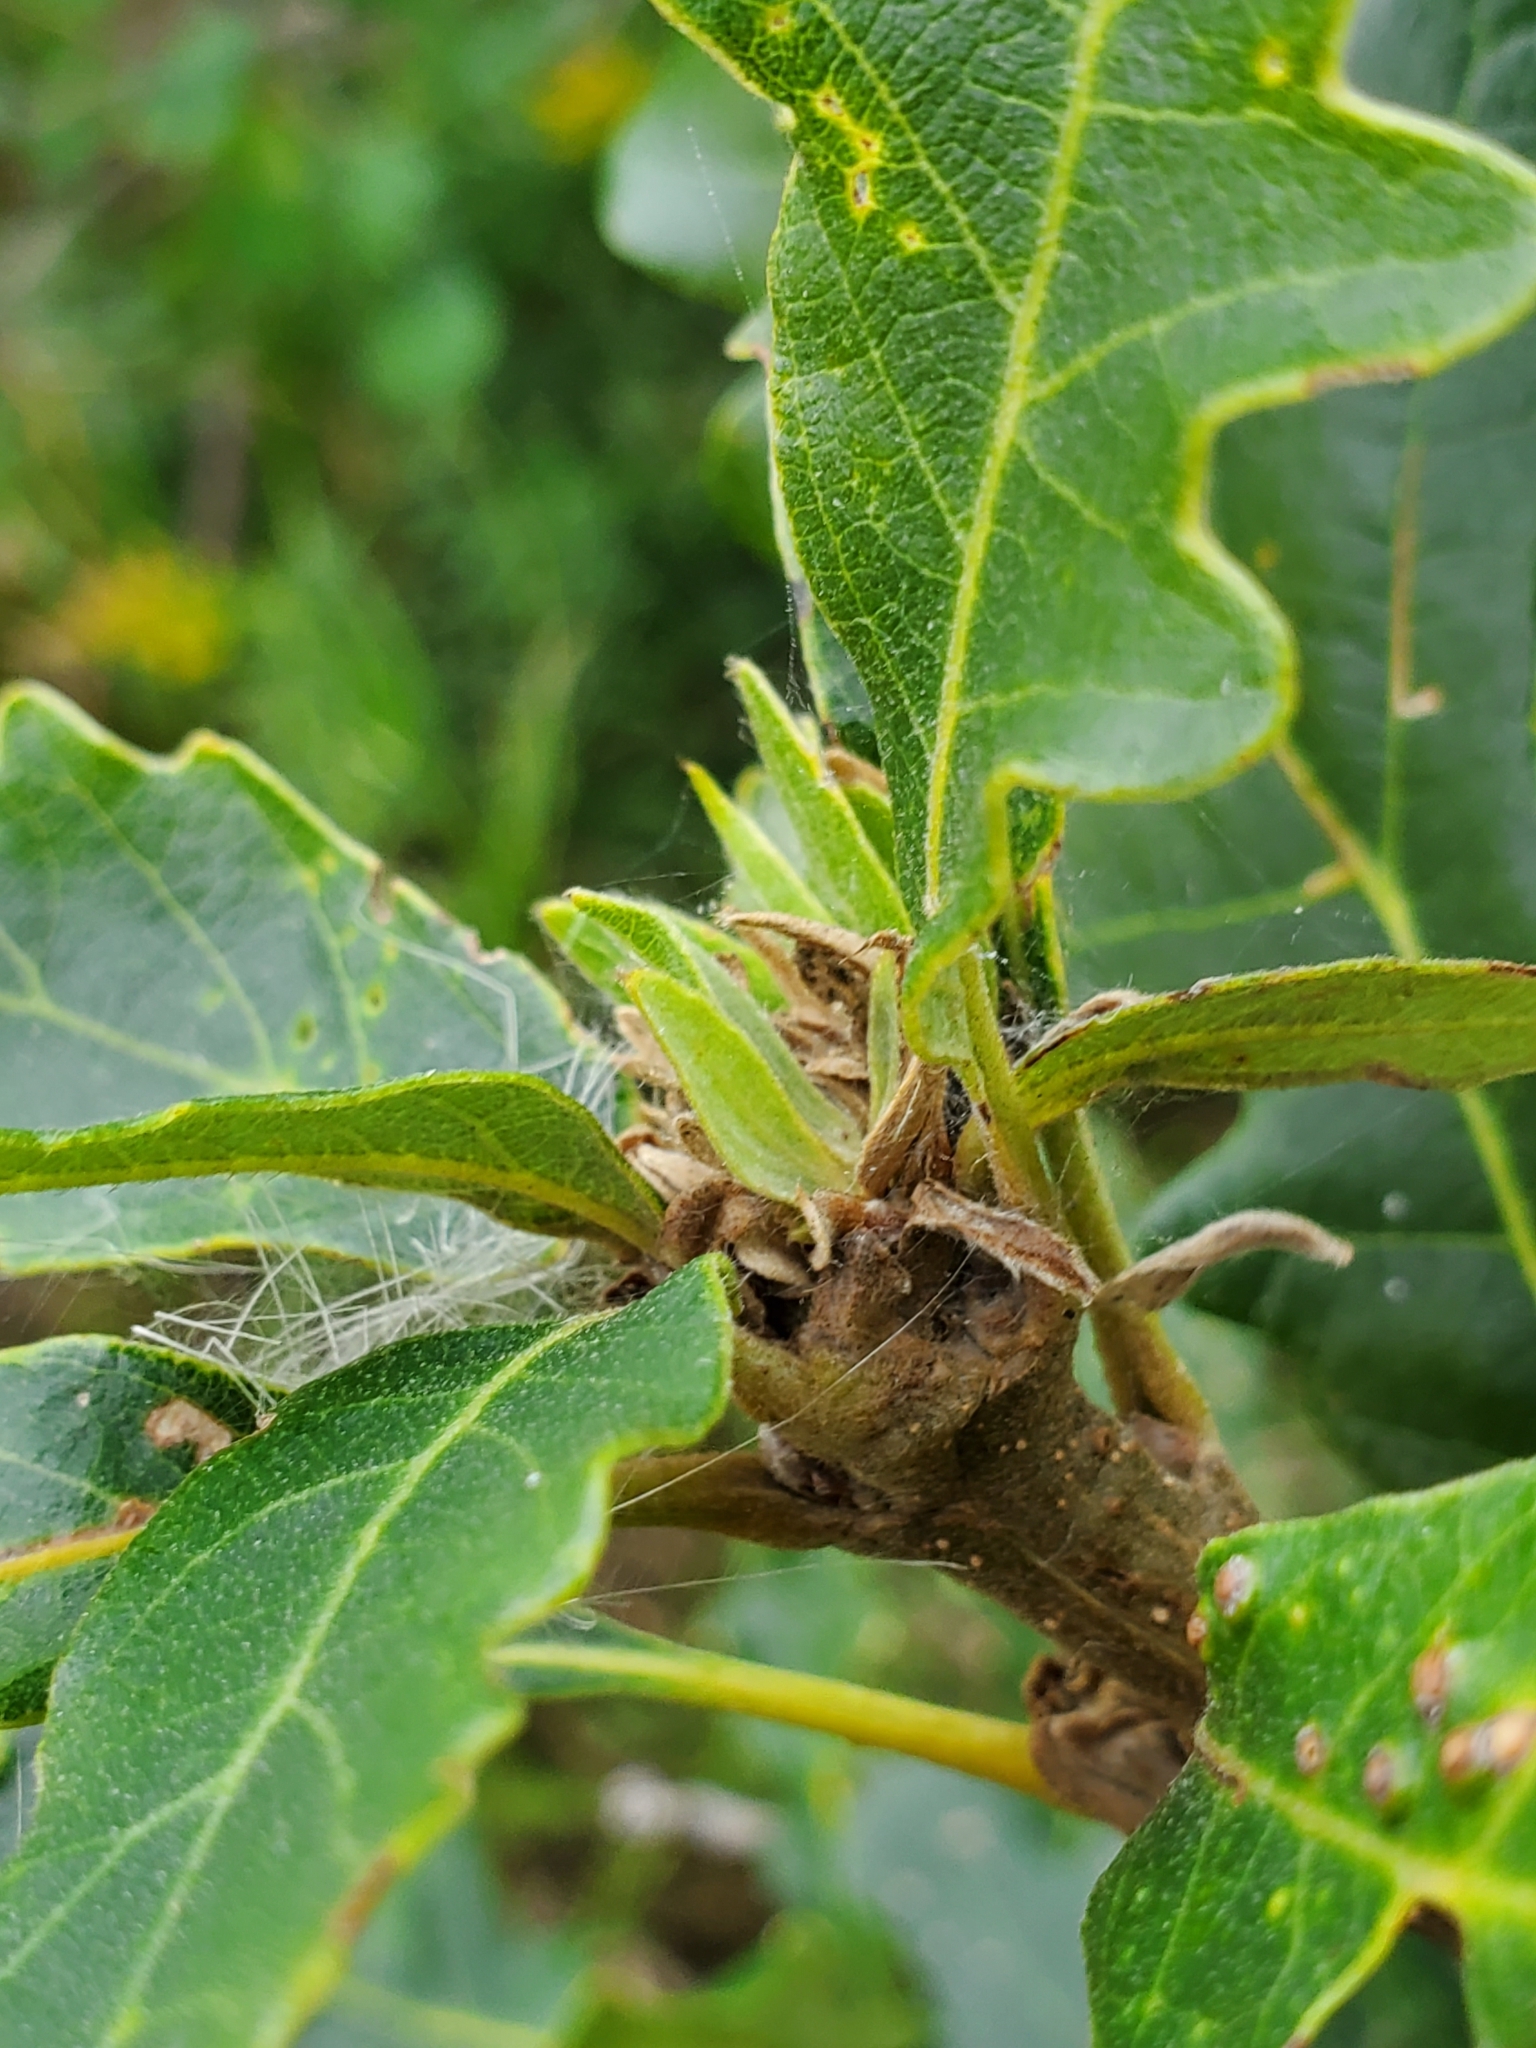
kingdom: Animalia
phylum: Arthropoda
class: Insecta
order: Hymenoptera
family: Cynipidae
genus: Andricus
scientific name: Andricus
